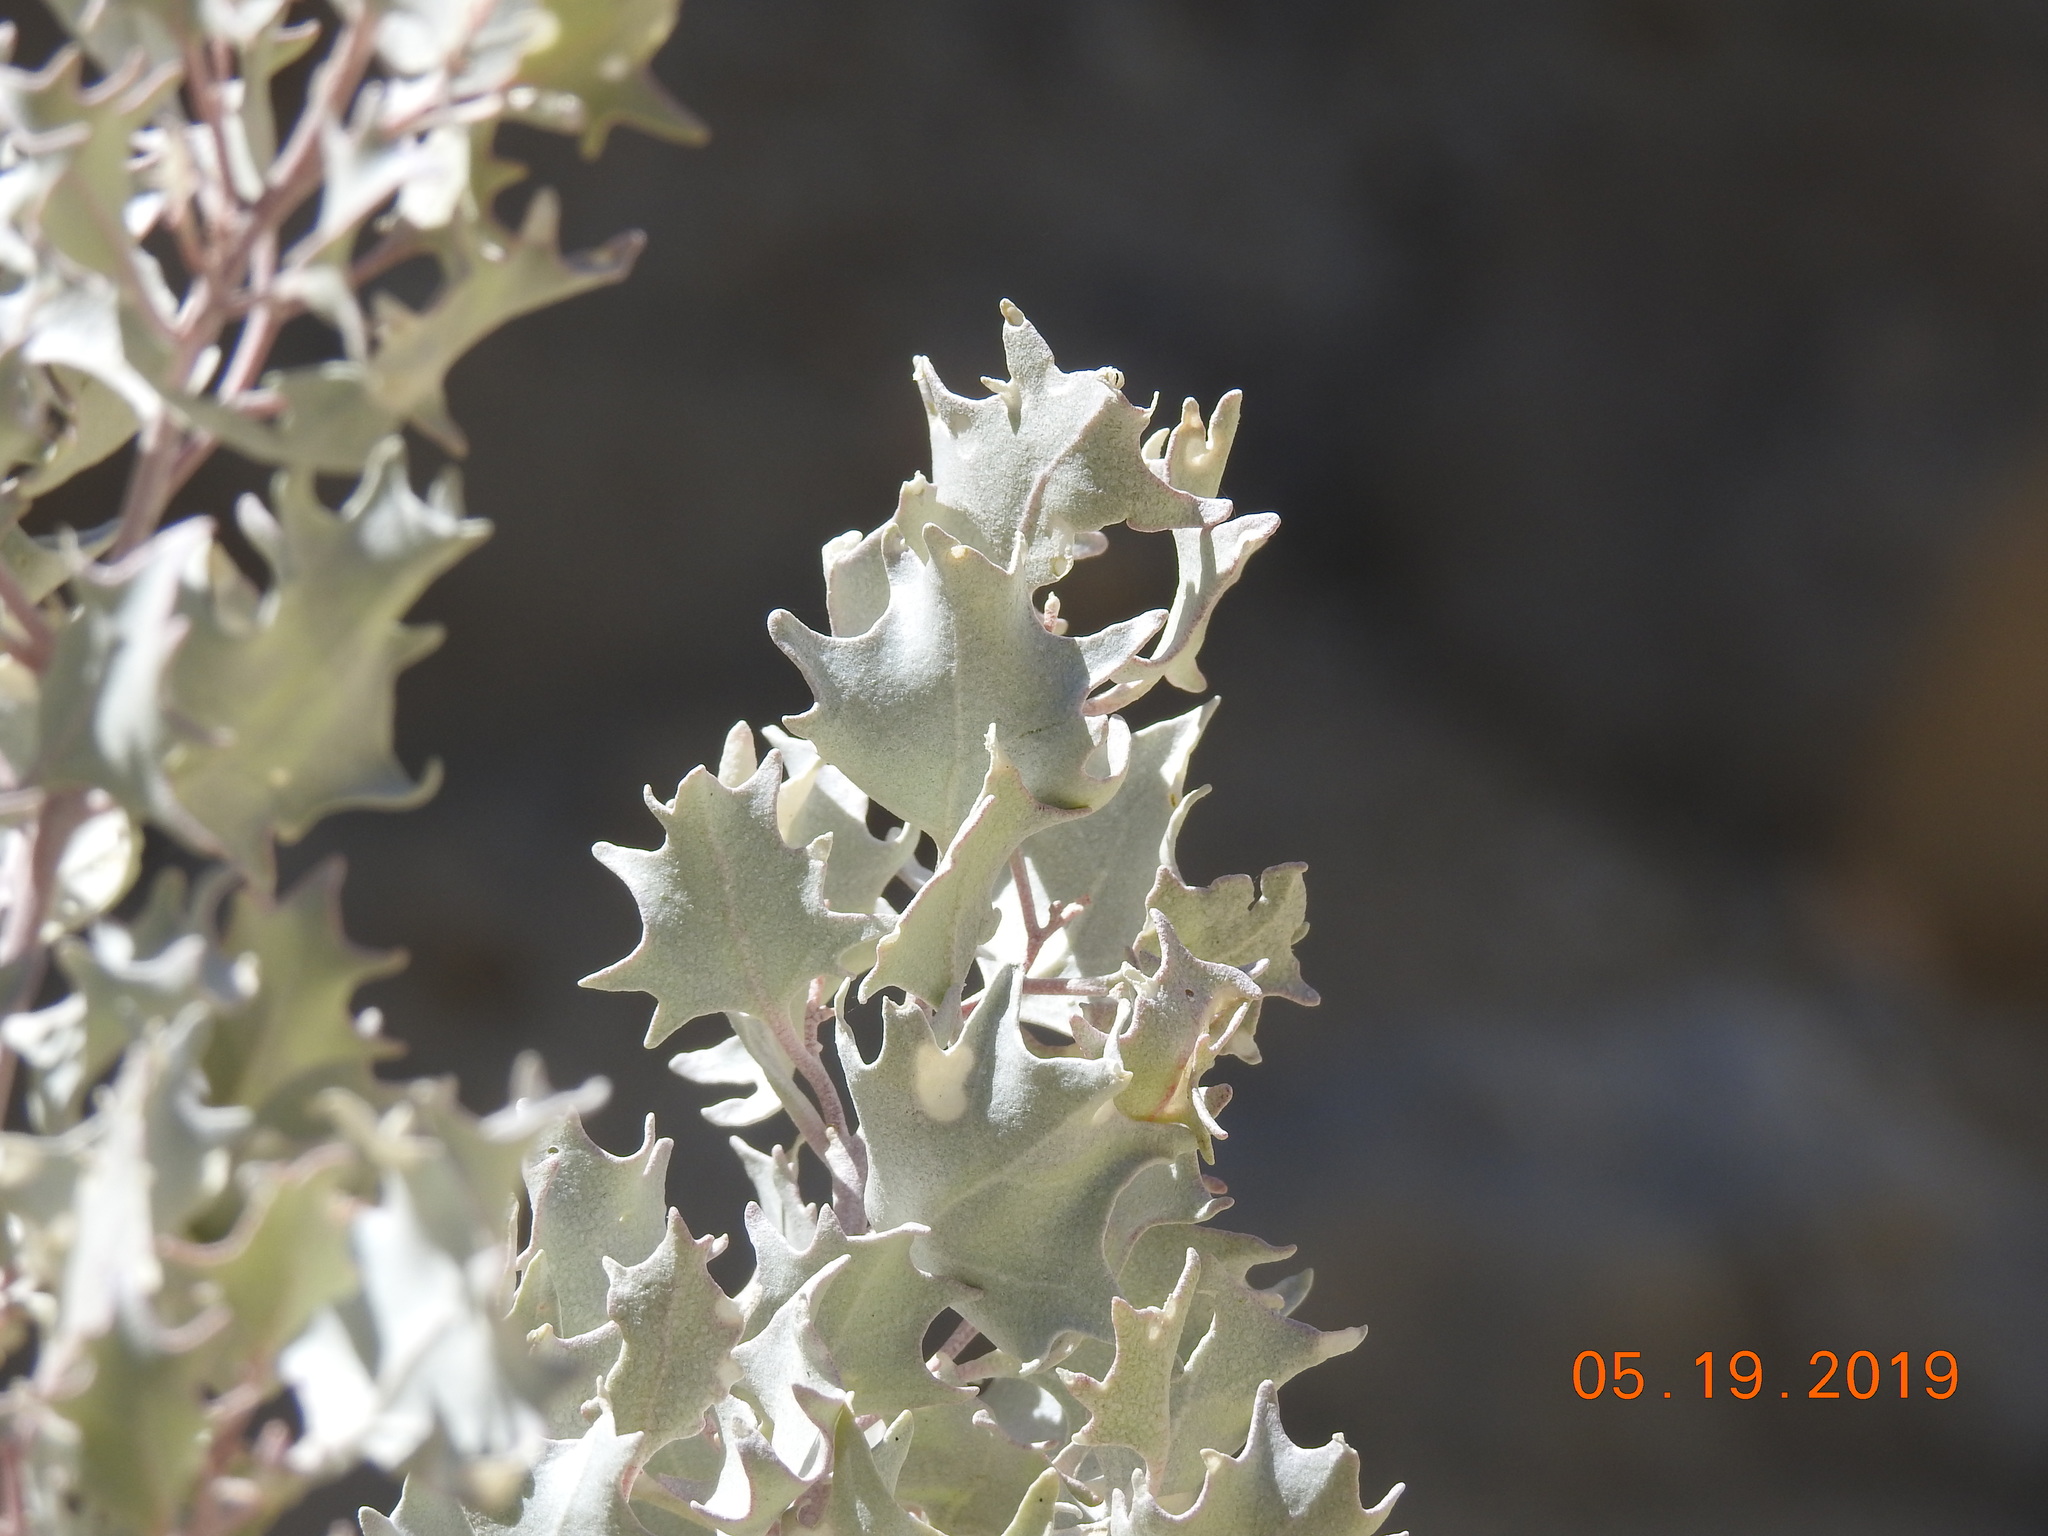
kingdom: Plantae
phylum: Tracheophyta
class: Magnoliopsida
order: Caryophyllales
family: Amaranthaceae
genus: Atriplex
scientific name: Atriplex hymenelytra
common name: Desert-holly
